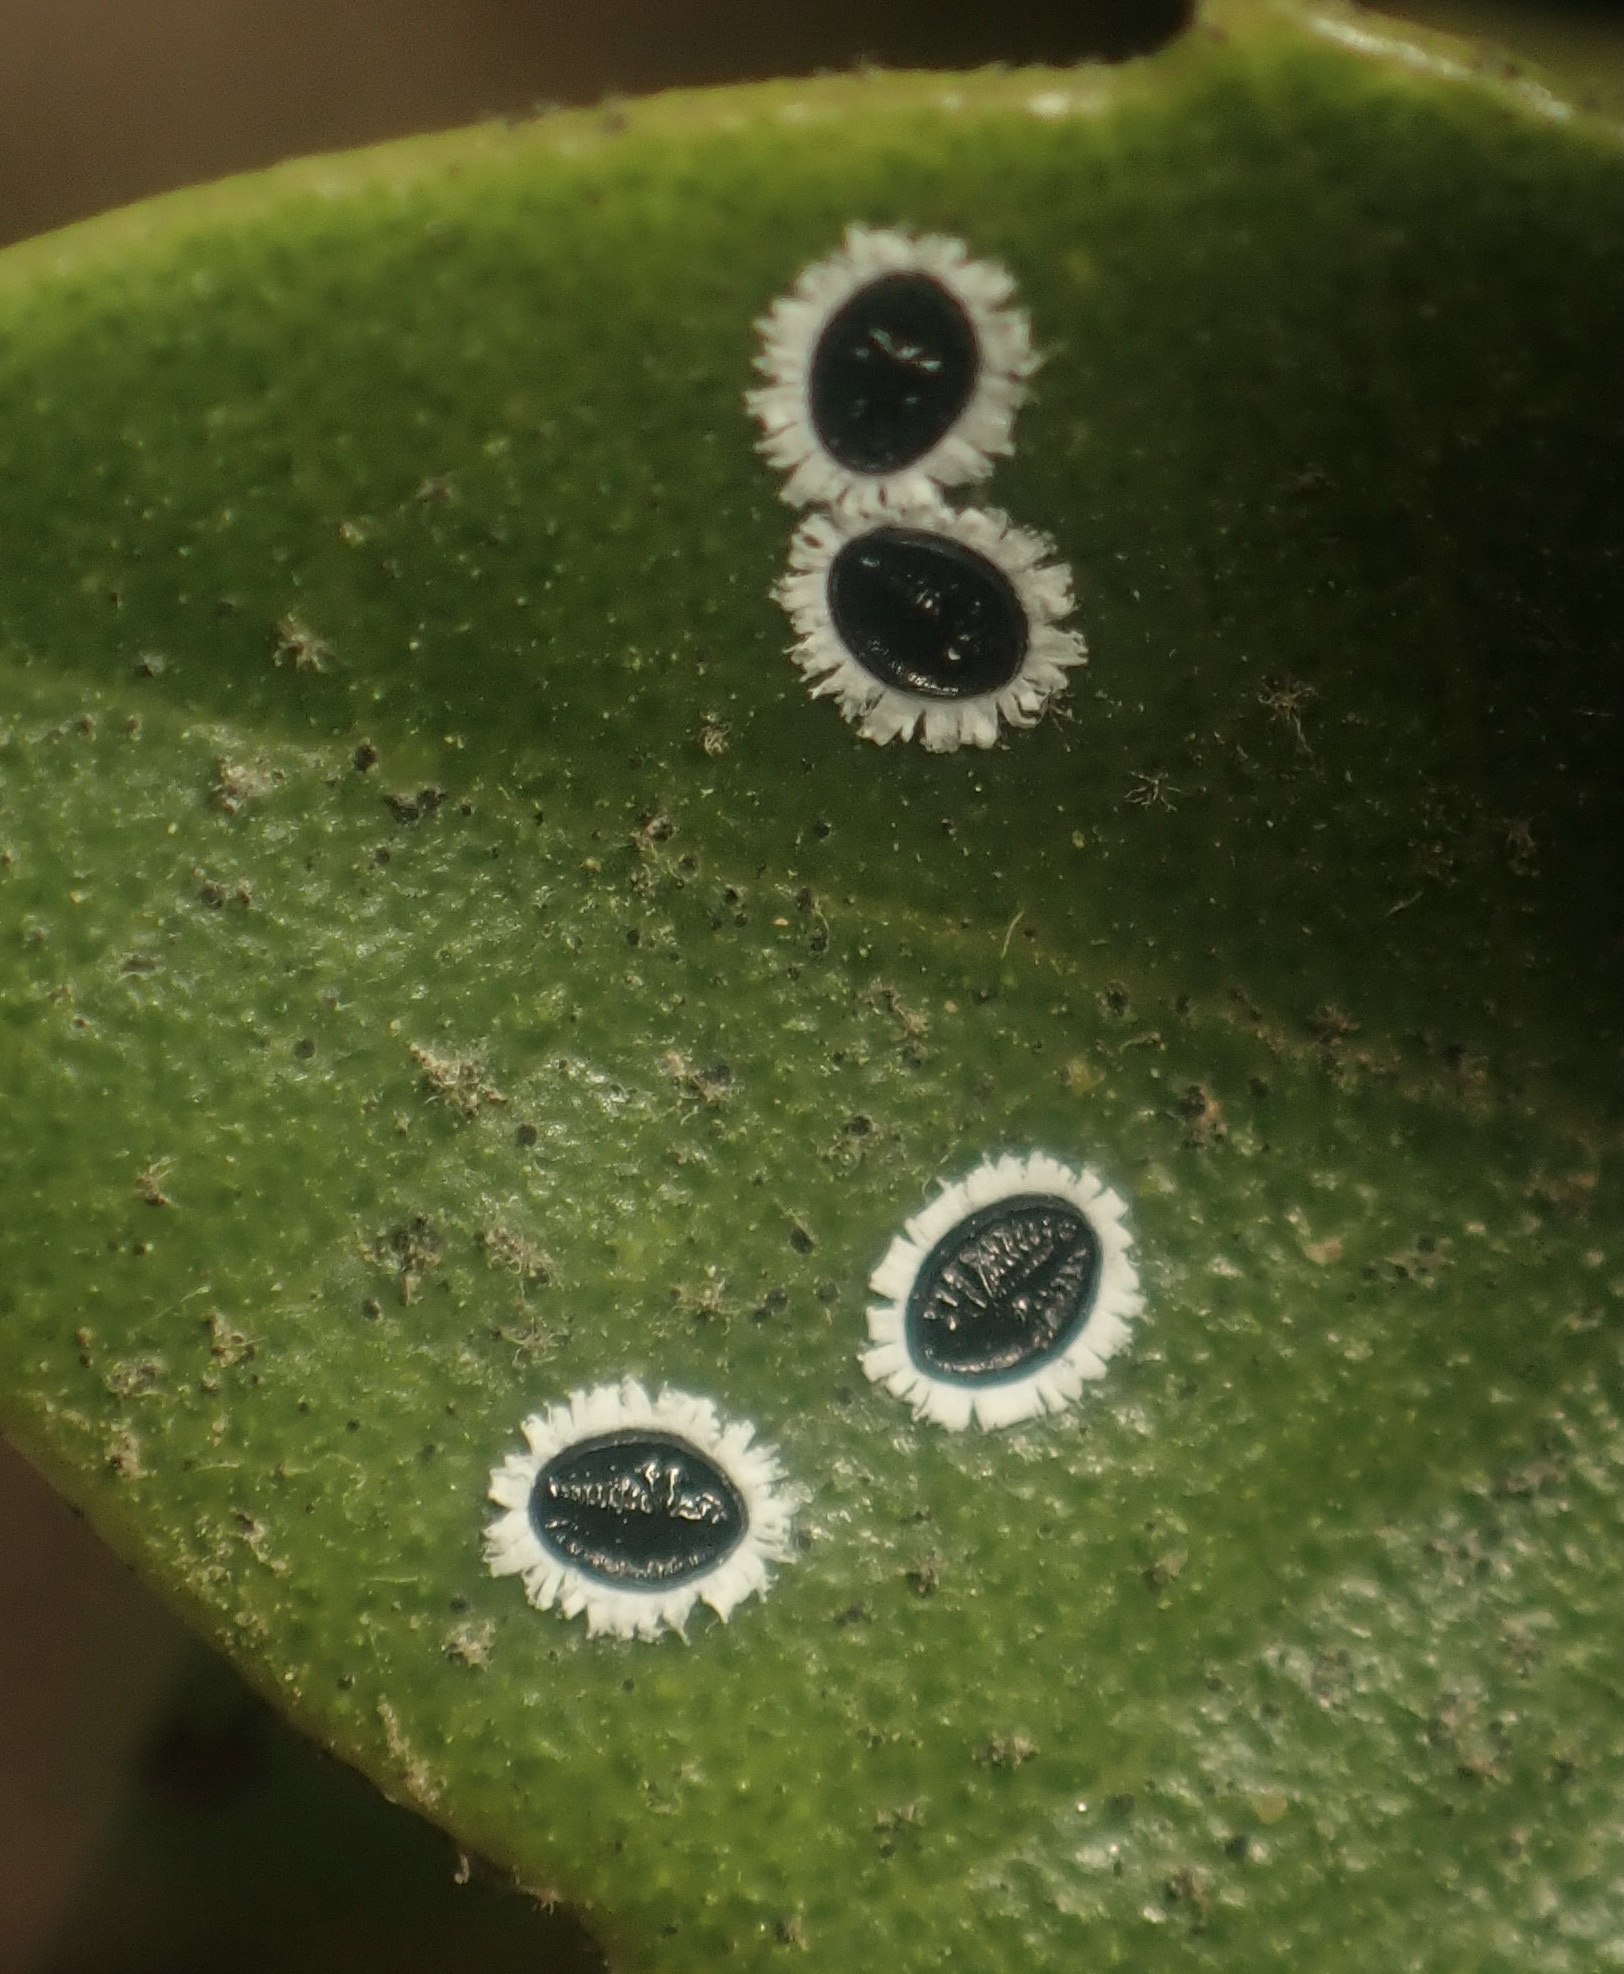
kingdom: Animalia
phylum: Arthropoda
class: Insecta
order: Hemiptera
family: Aleyrodidae
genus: Tetraleurodes
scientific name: Tetraleurodes perileuca
